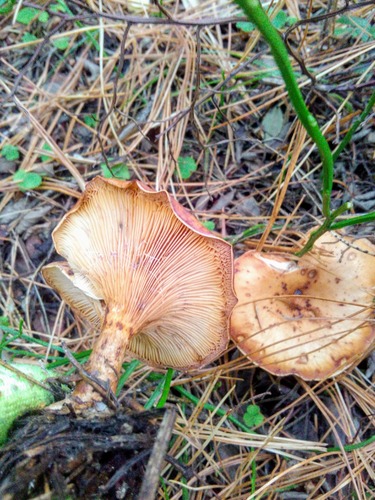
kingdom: Fungi
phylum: Basidiomycota
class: Agaricomycetes
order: Agaricales
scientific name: Agaricales
